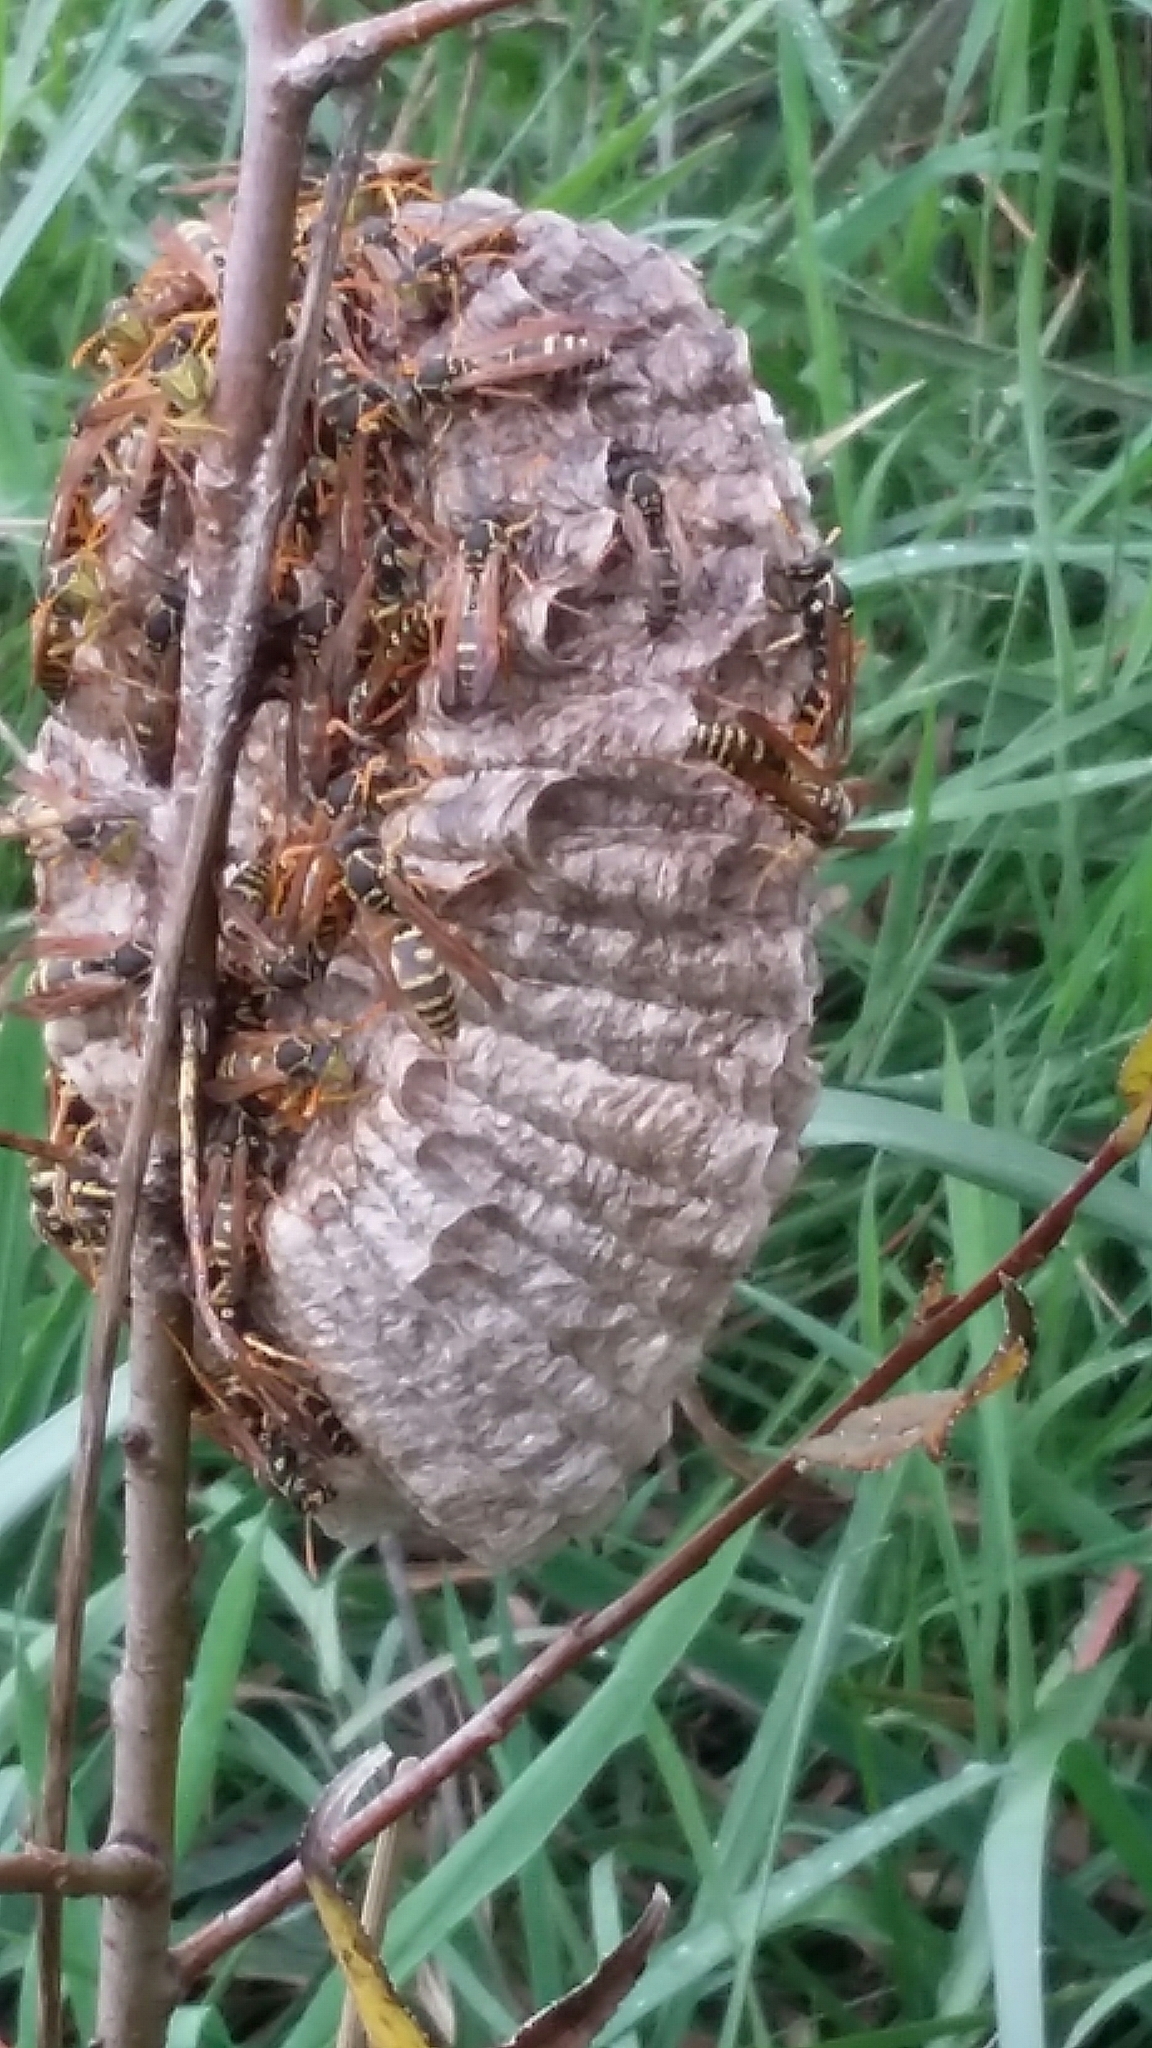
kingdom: Animalia
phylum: Arthropoda
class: Insecta
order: Hymenoptera
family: Eumenidae
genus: Polistes
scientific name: Polistes chinensis
